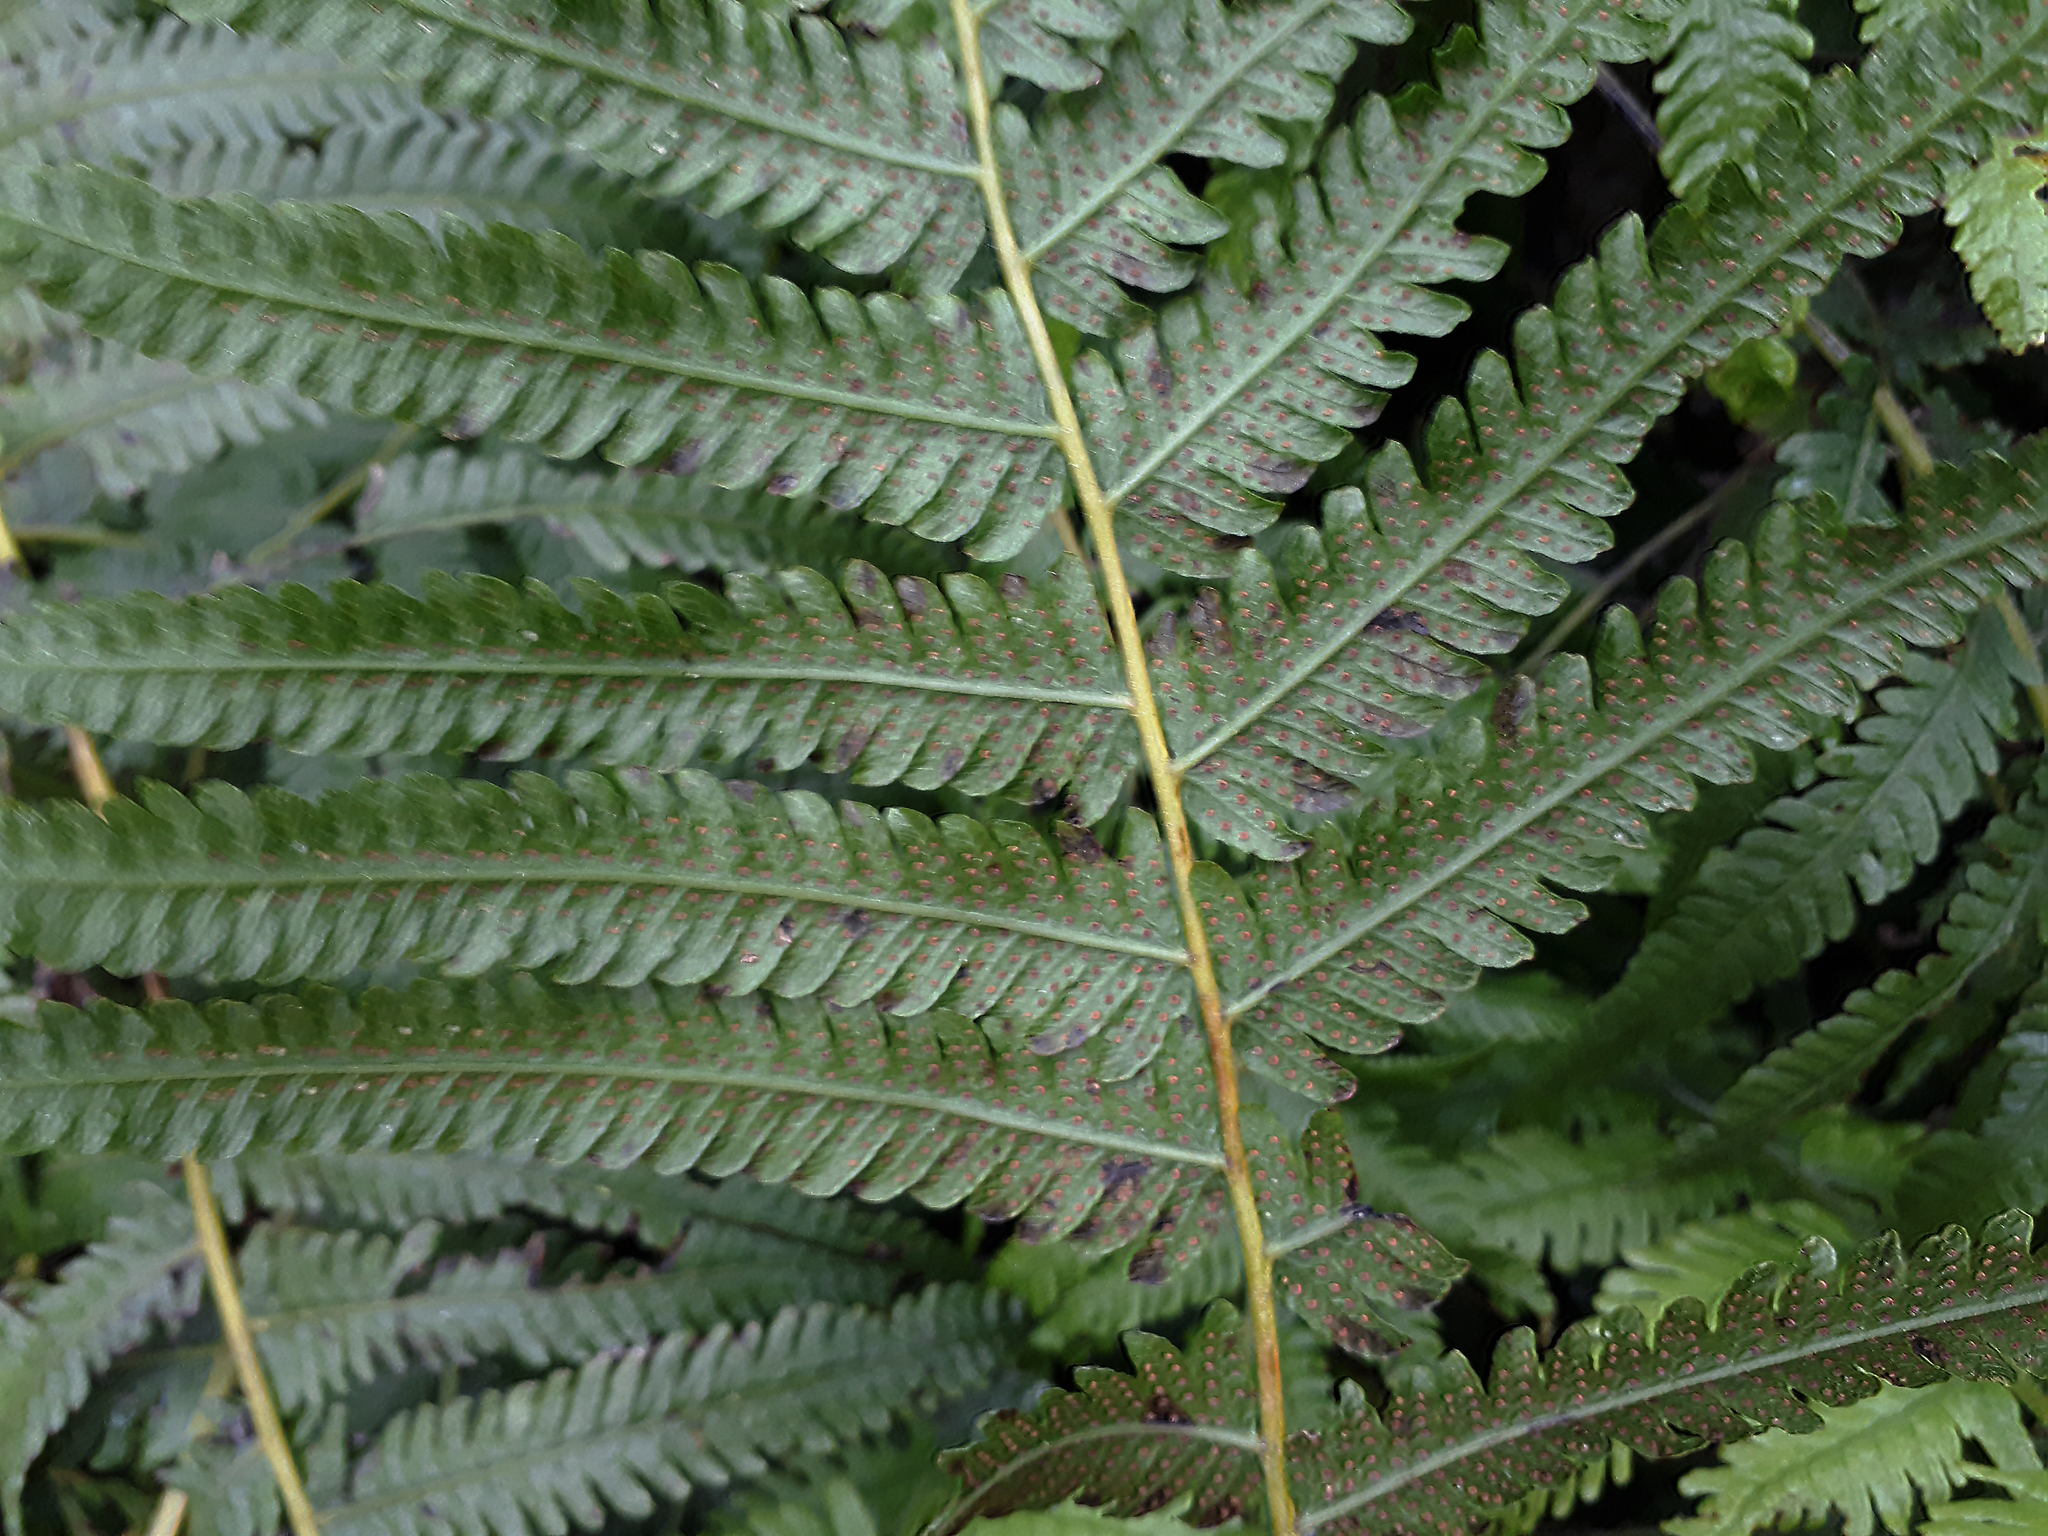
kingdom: Plantae
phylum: Tracheophyta
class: Polypodiopsida
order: Polypodiales
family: Thelypteridaceae
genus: Christella
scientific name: Christella dentata
